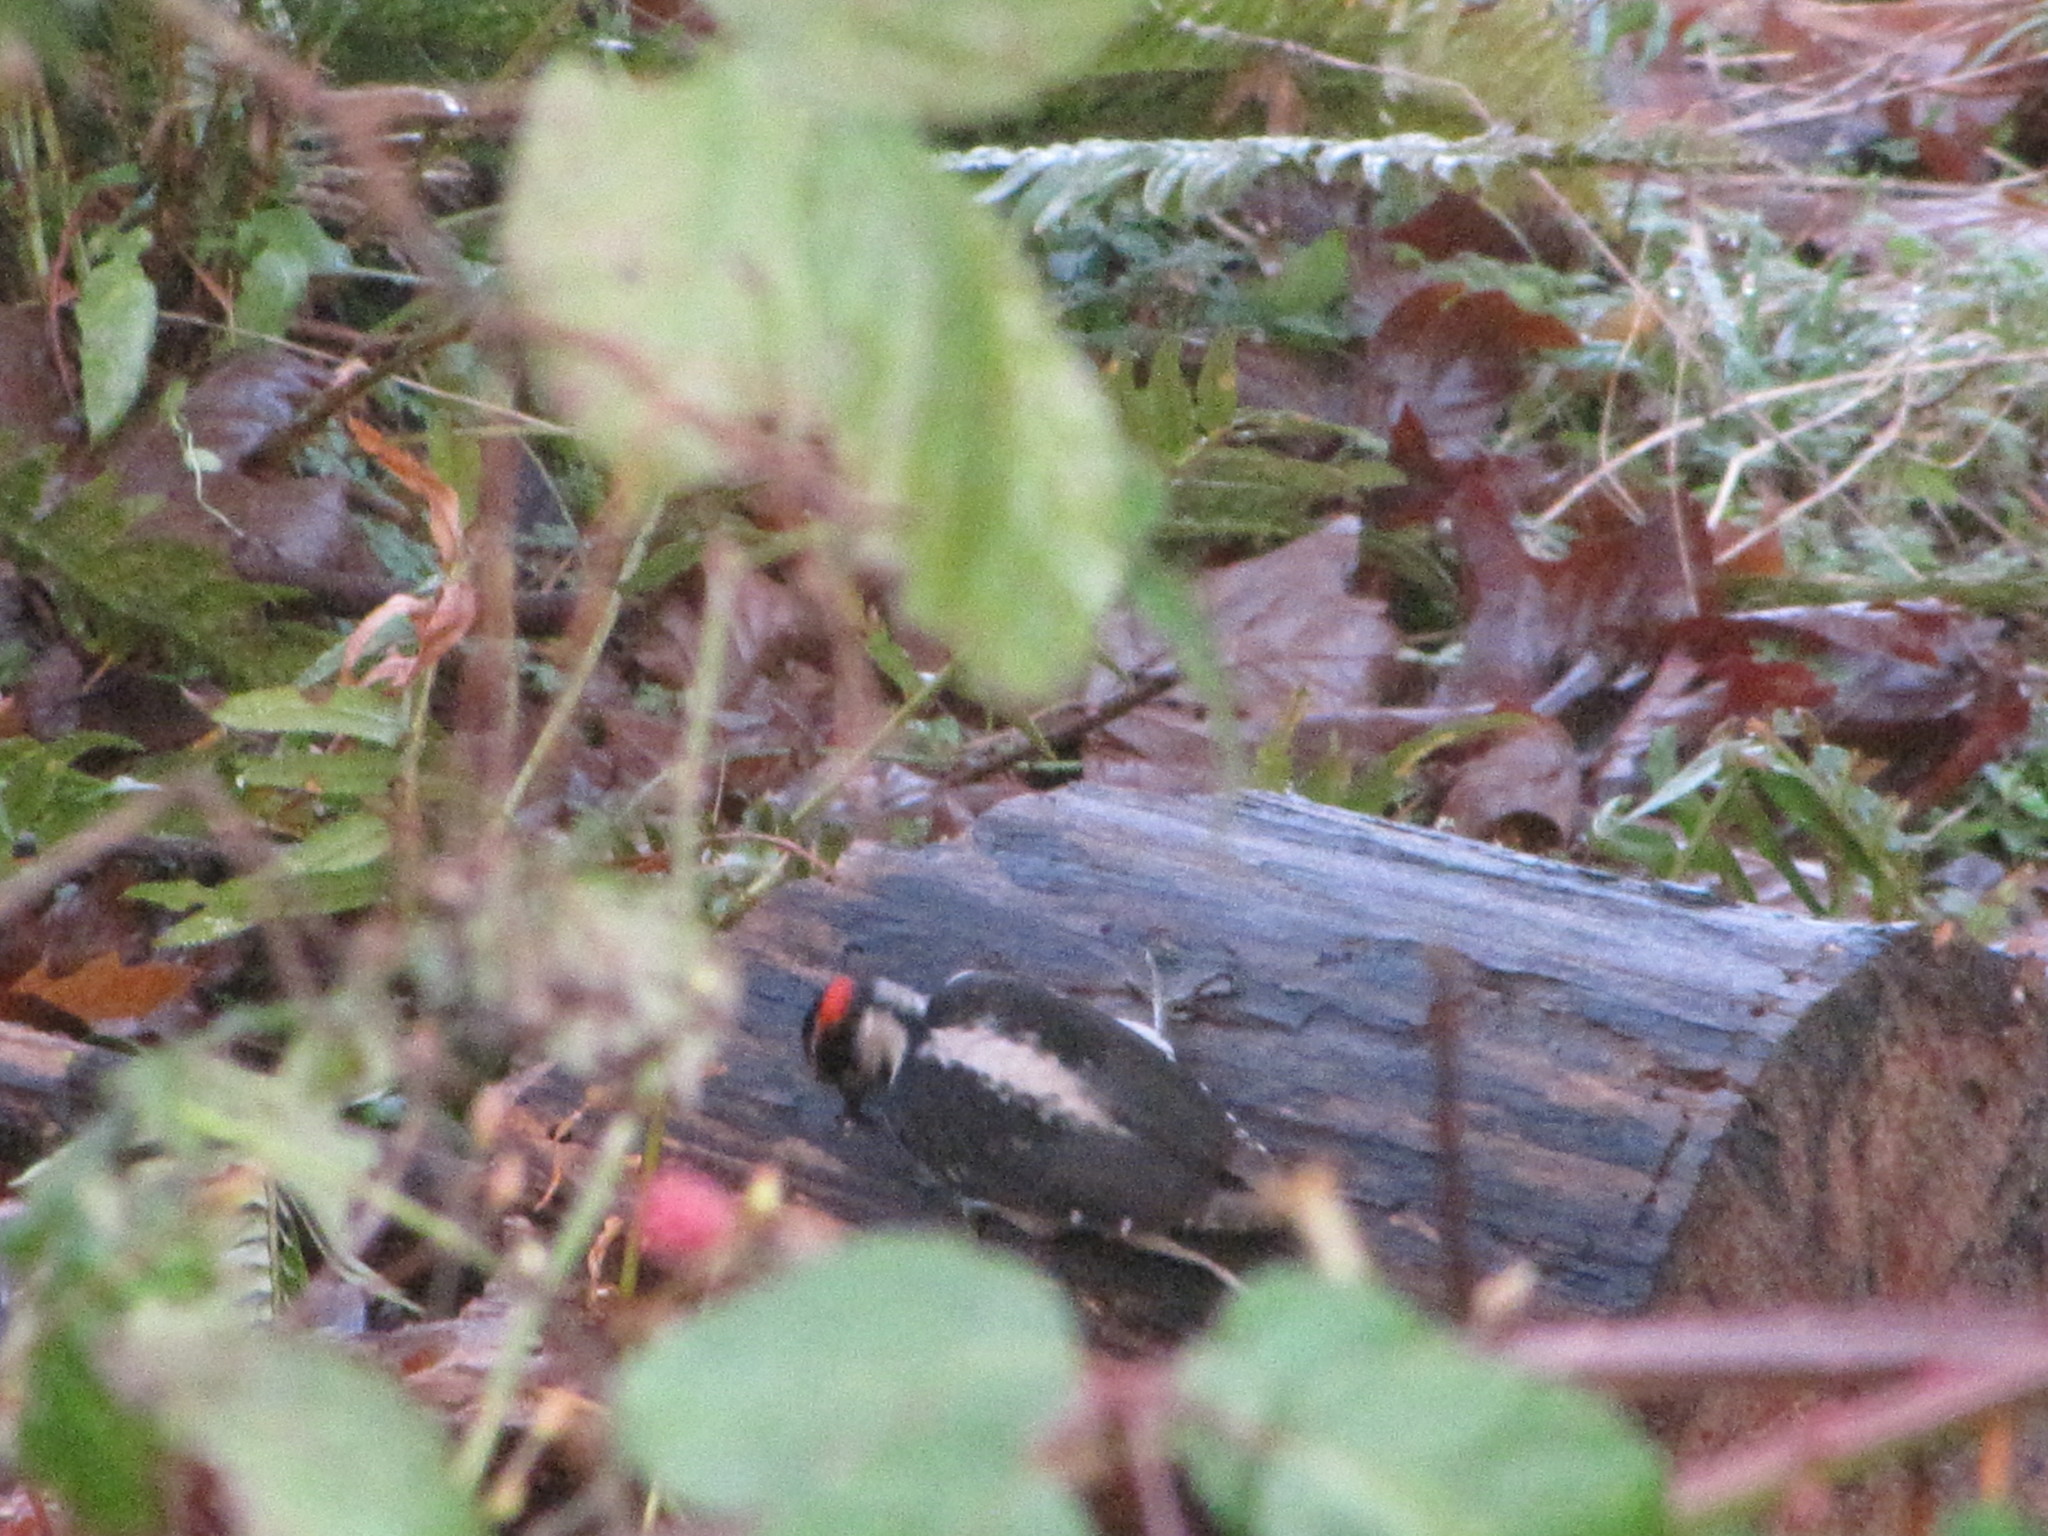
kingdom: Animalia
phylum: Chordata
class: Aves
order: Piciformes
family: Picidae
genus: Dryobates
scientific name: Dryobates pubescens
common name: Downy woodpecker
